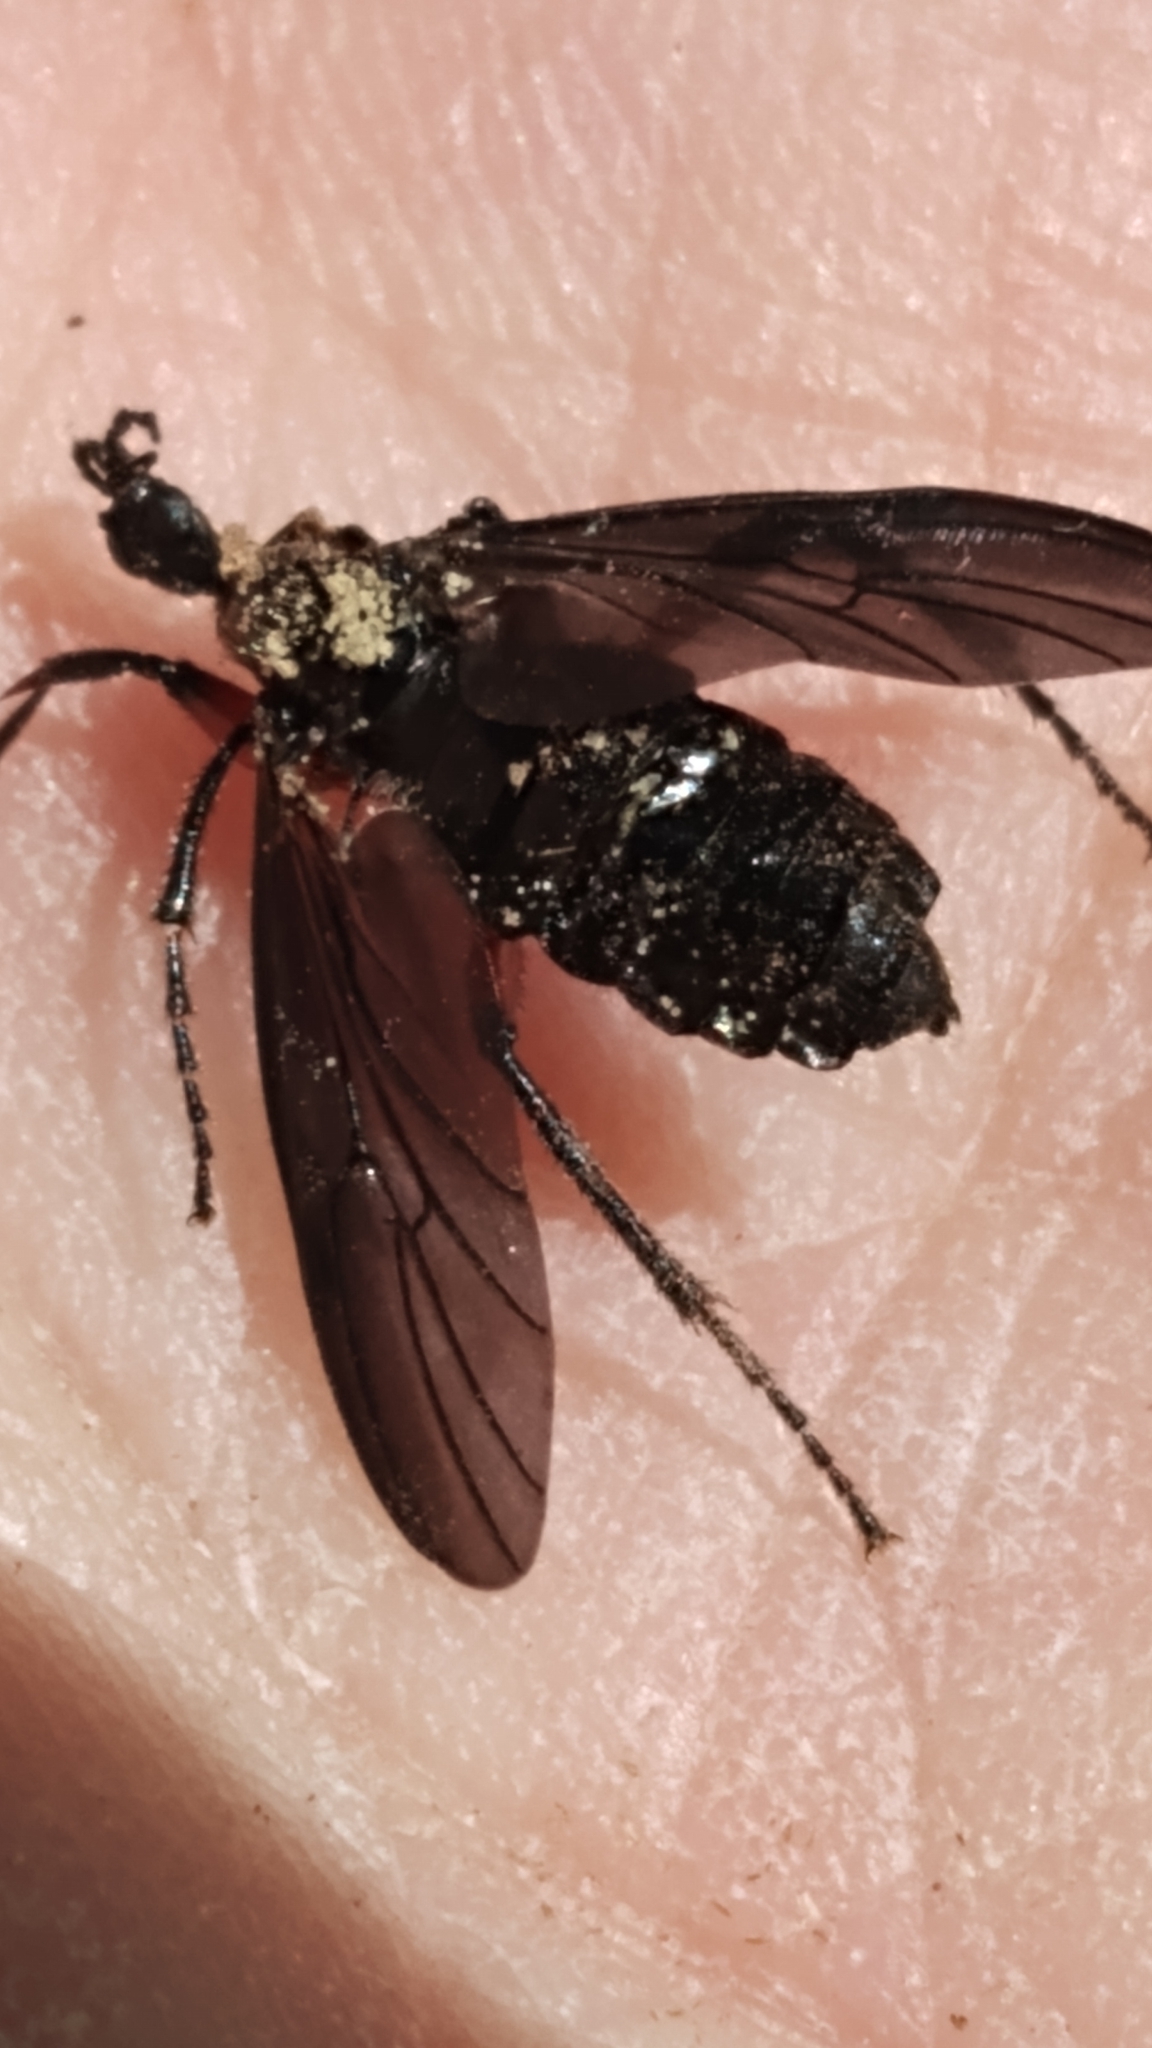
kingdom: Animalia
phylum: Arthropoda
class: Insecta
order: Diptera
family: Bibionidae
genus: Bibio
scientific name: Bibio
